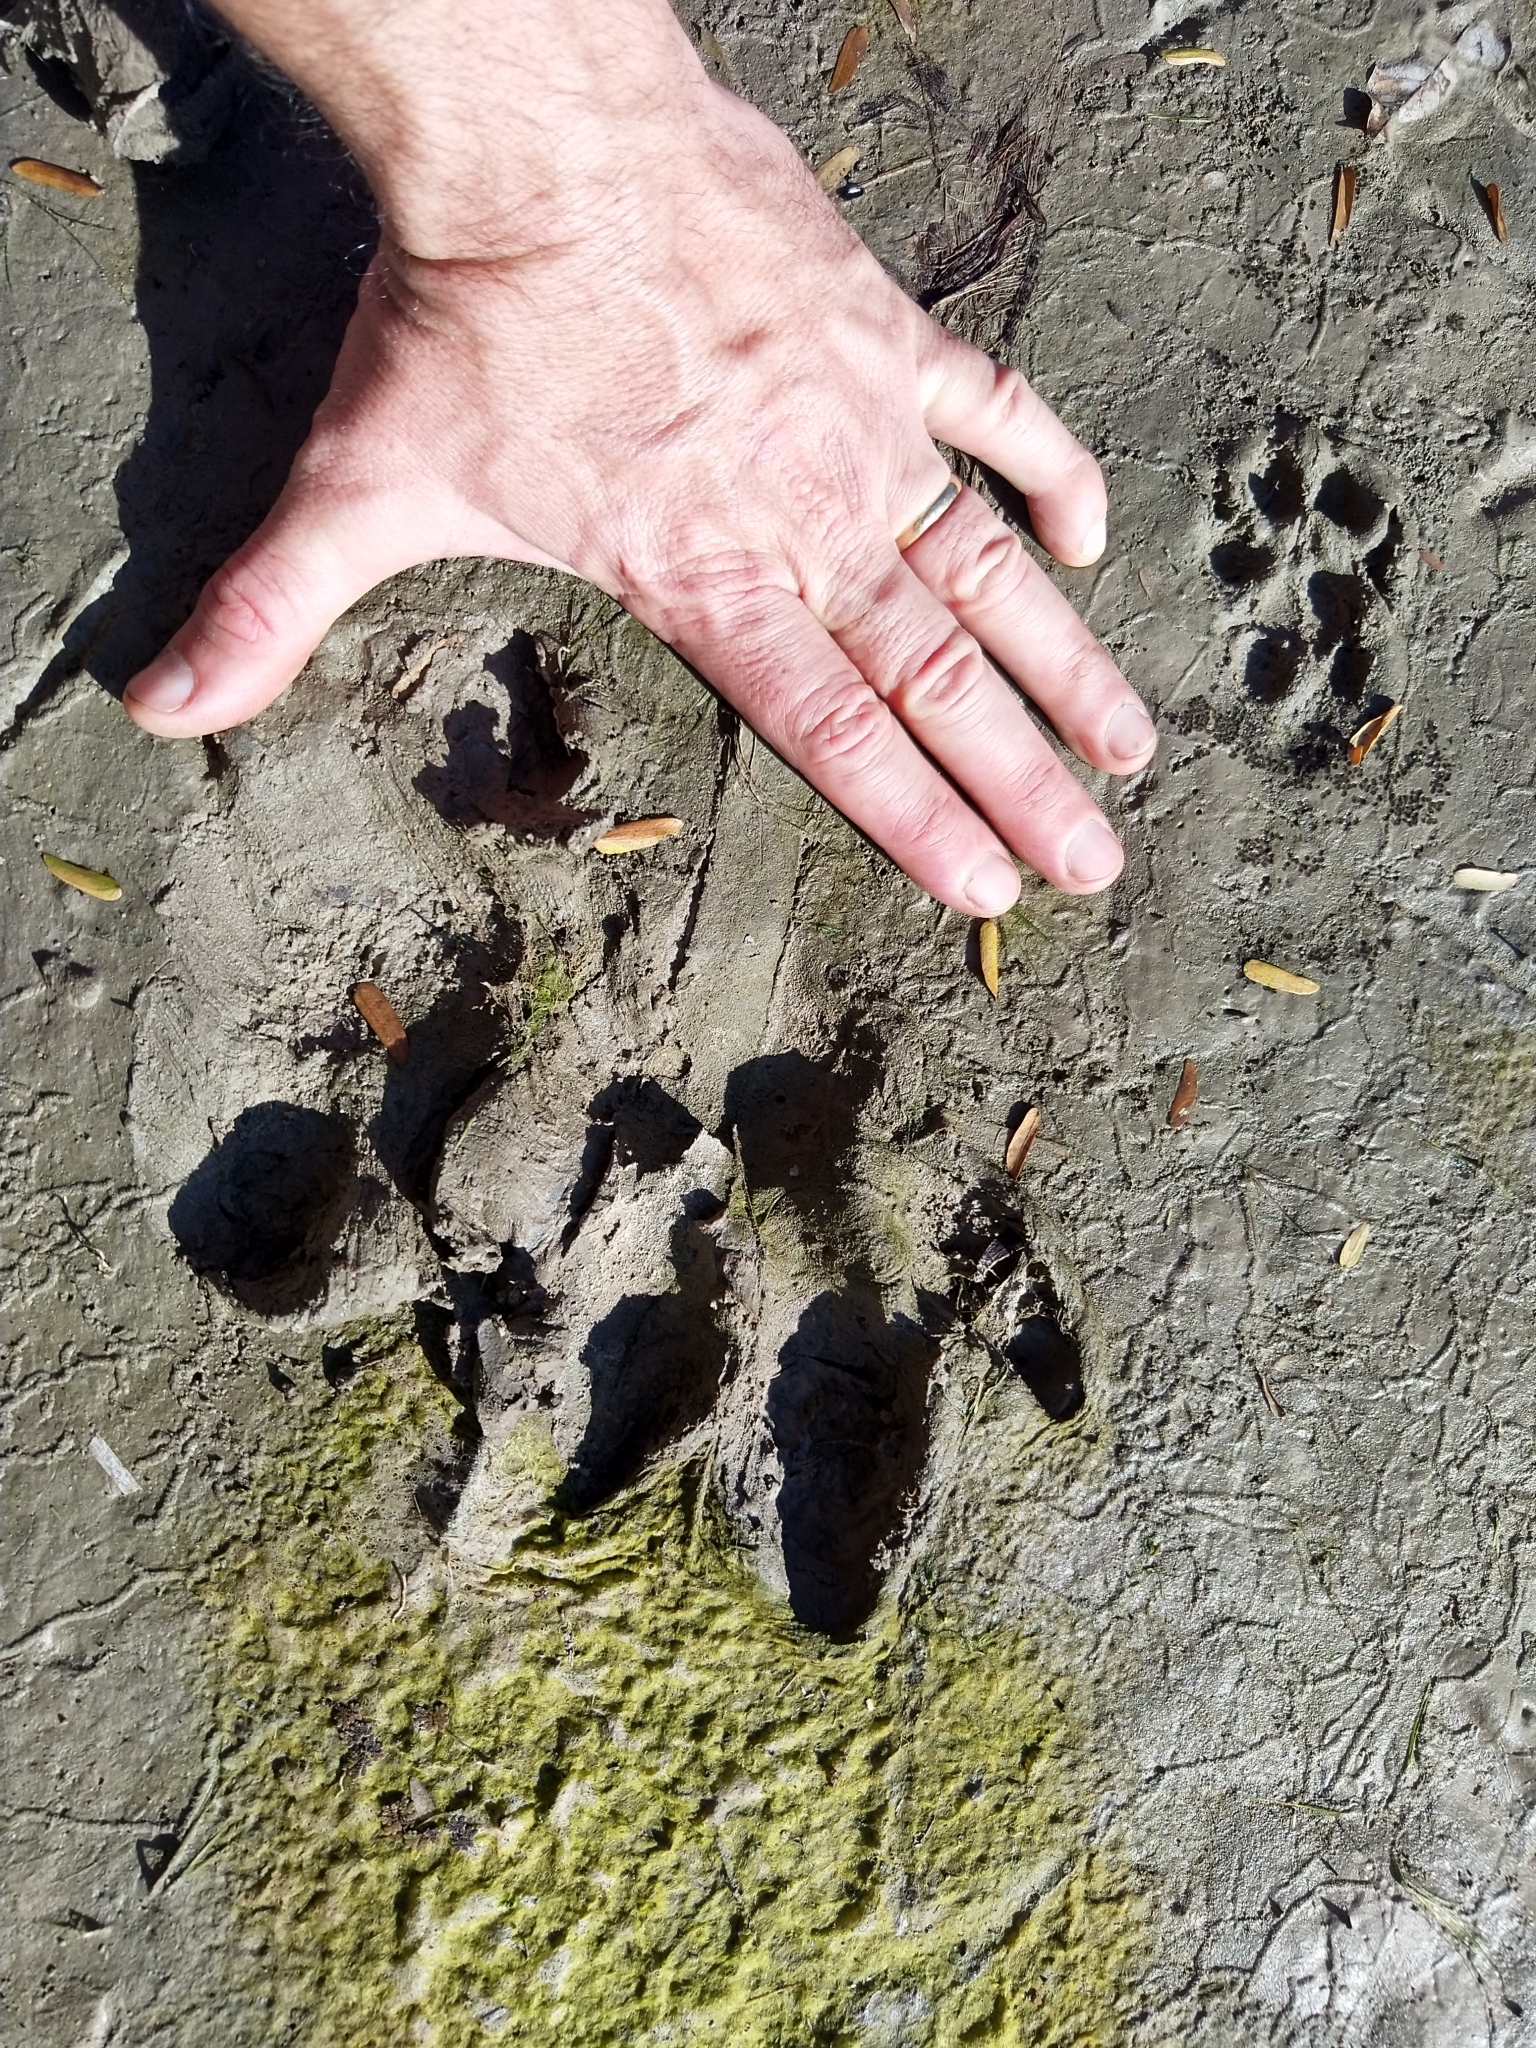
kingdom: Animalia
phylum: Chordata
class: Mammalia
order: Rodentia
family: Caviidae
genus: Hydrochoerus
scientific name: Hydrochoerus hydrochaeris
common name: Capybara
